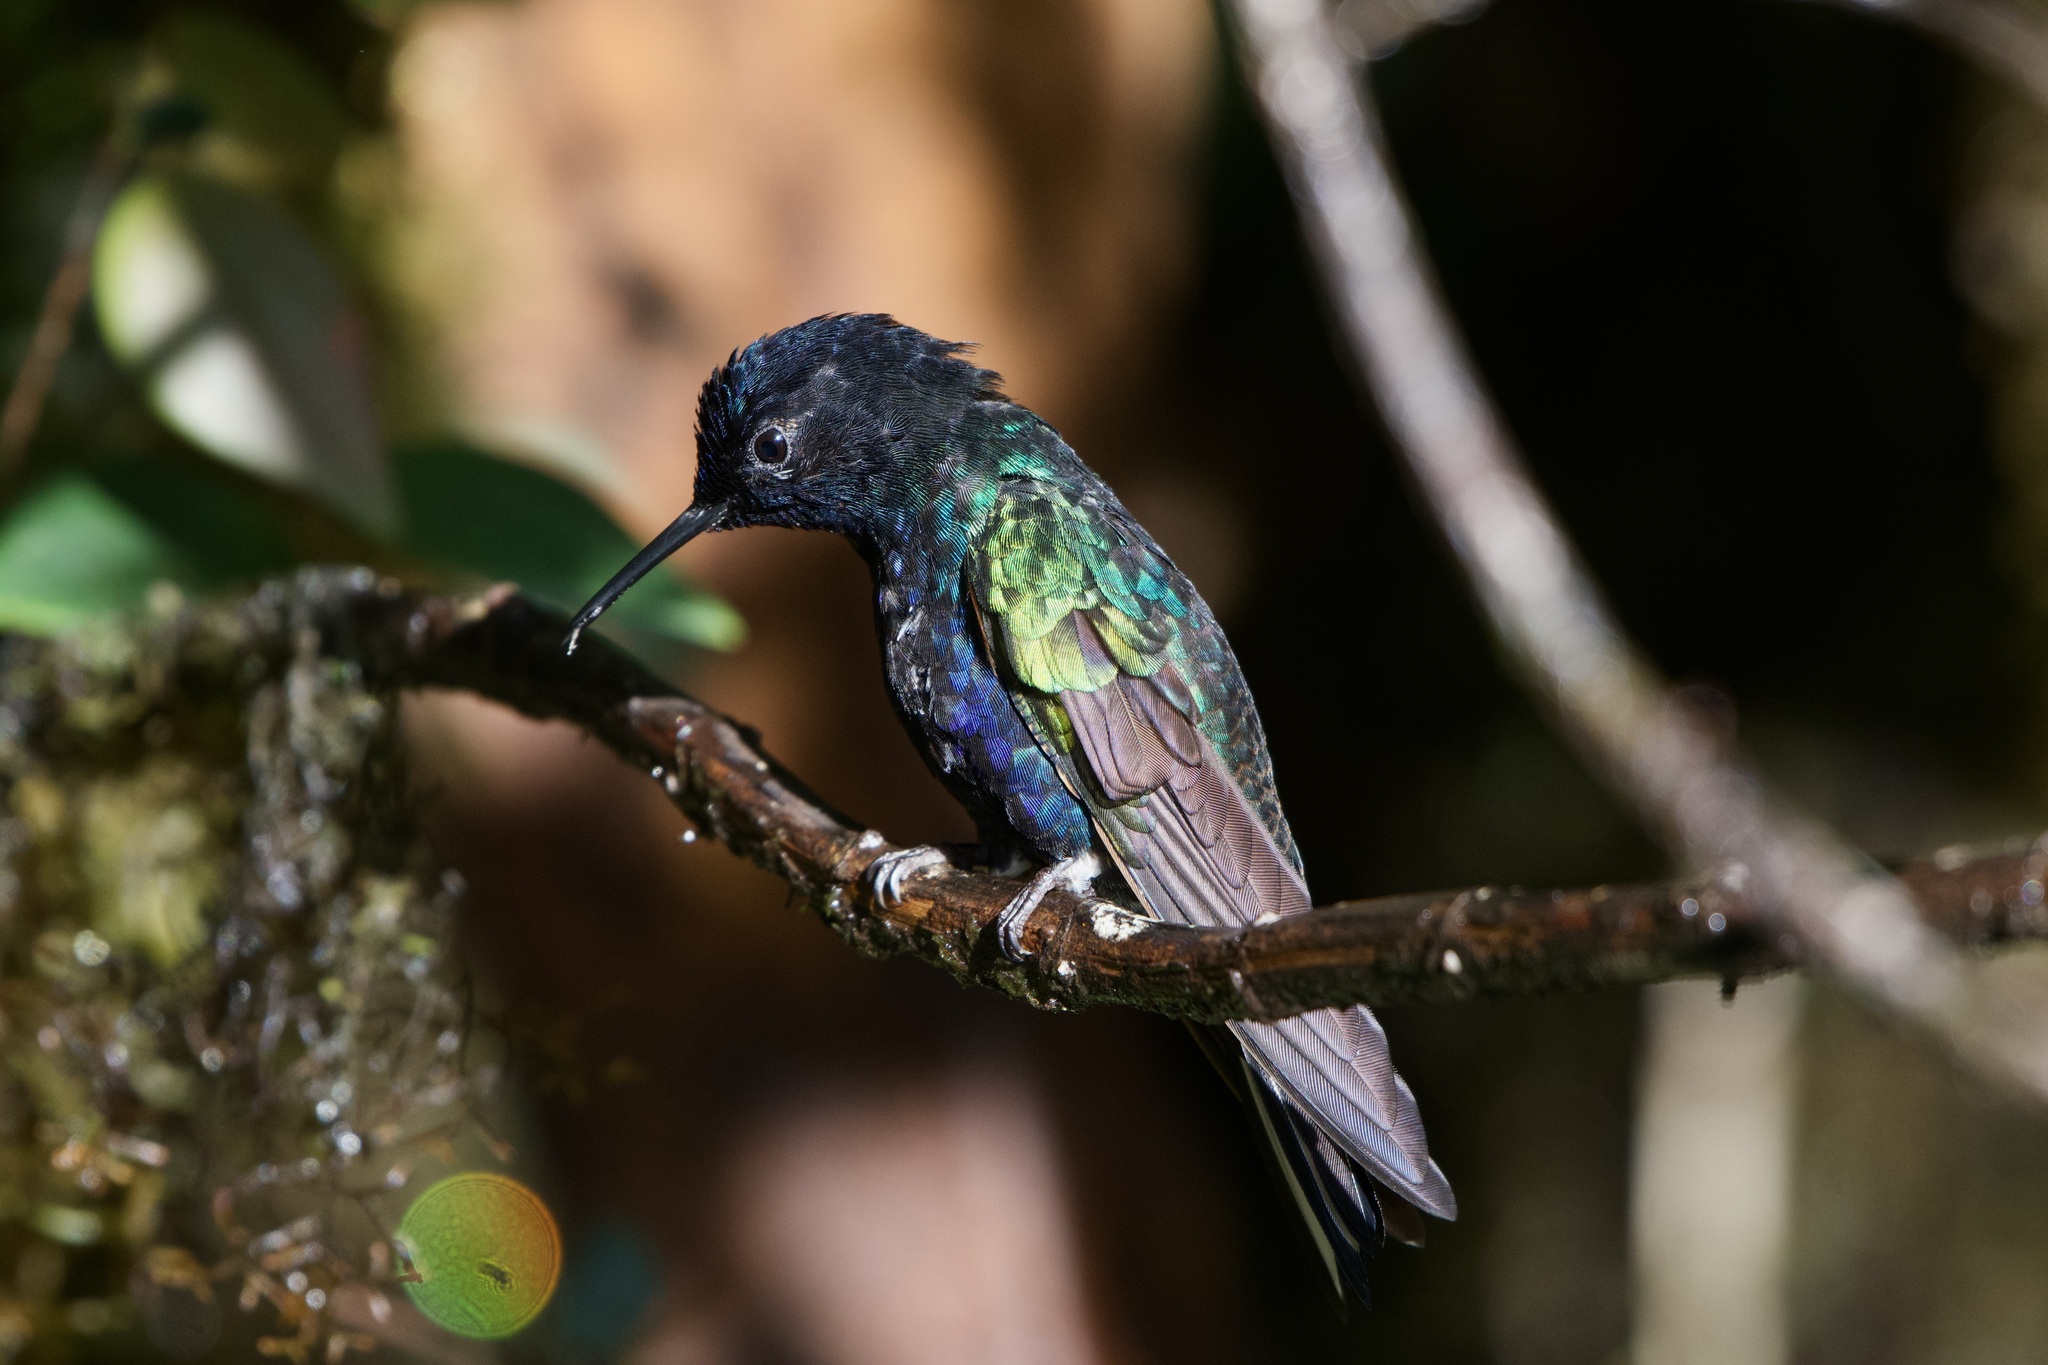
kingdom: Animalia
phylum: Chordata
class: Aves
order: Apodiformes
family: Trochilidae
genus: Boissonneaua
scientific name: Boissonneaua jardini
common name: Velvet-purple coronet
